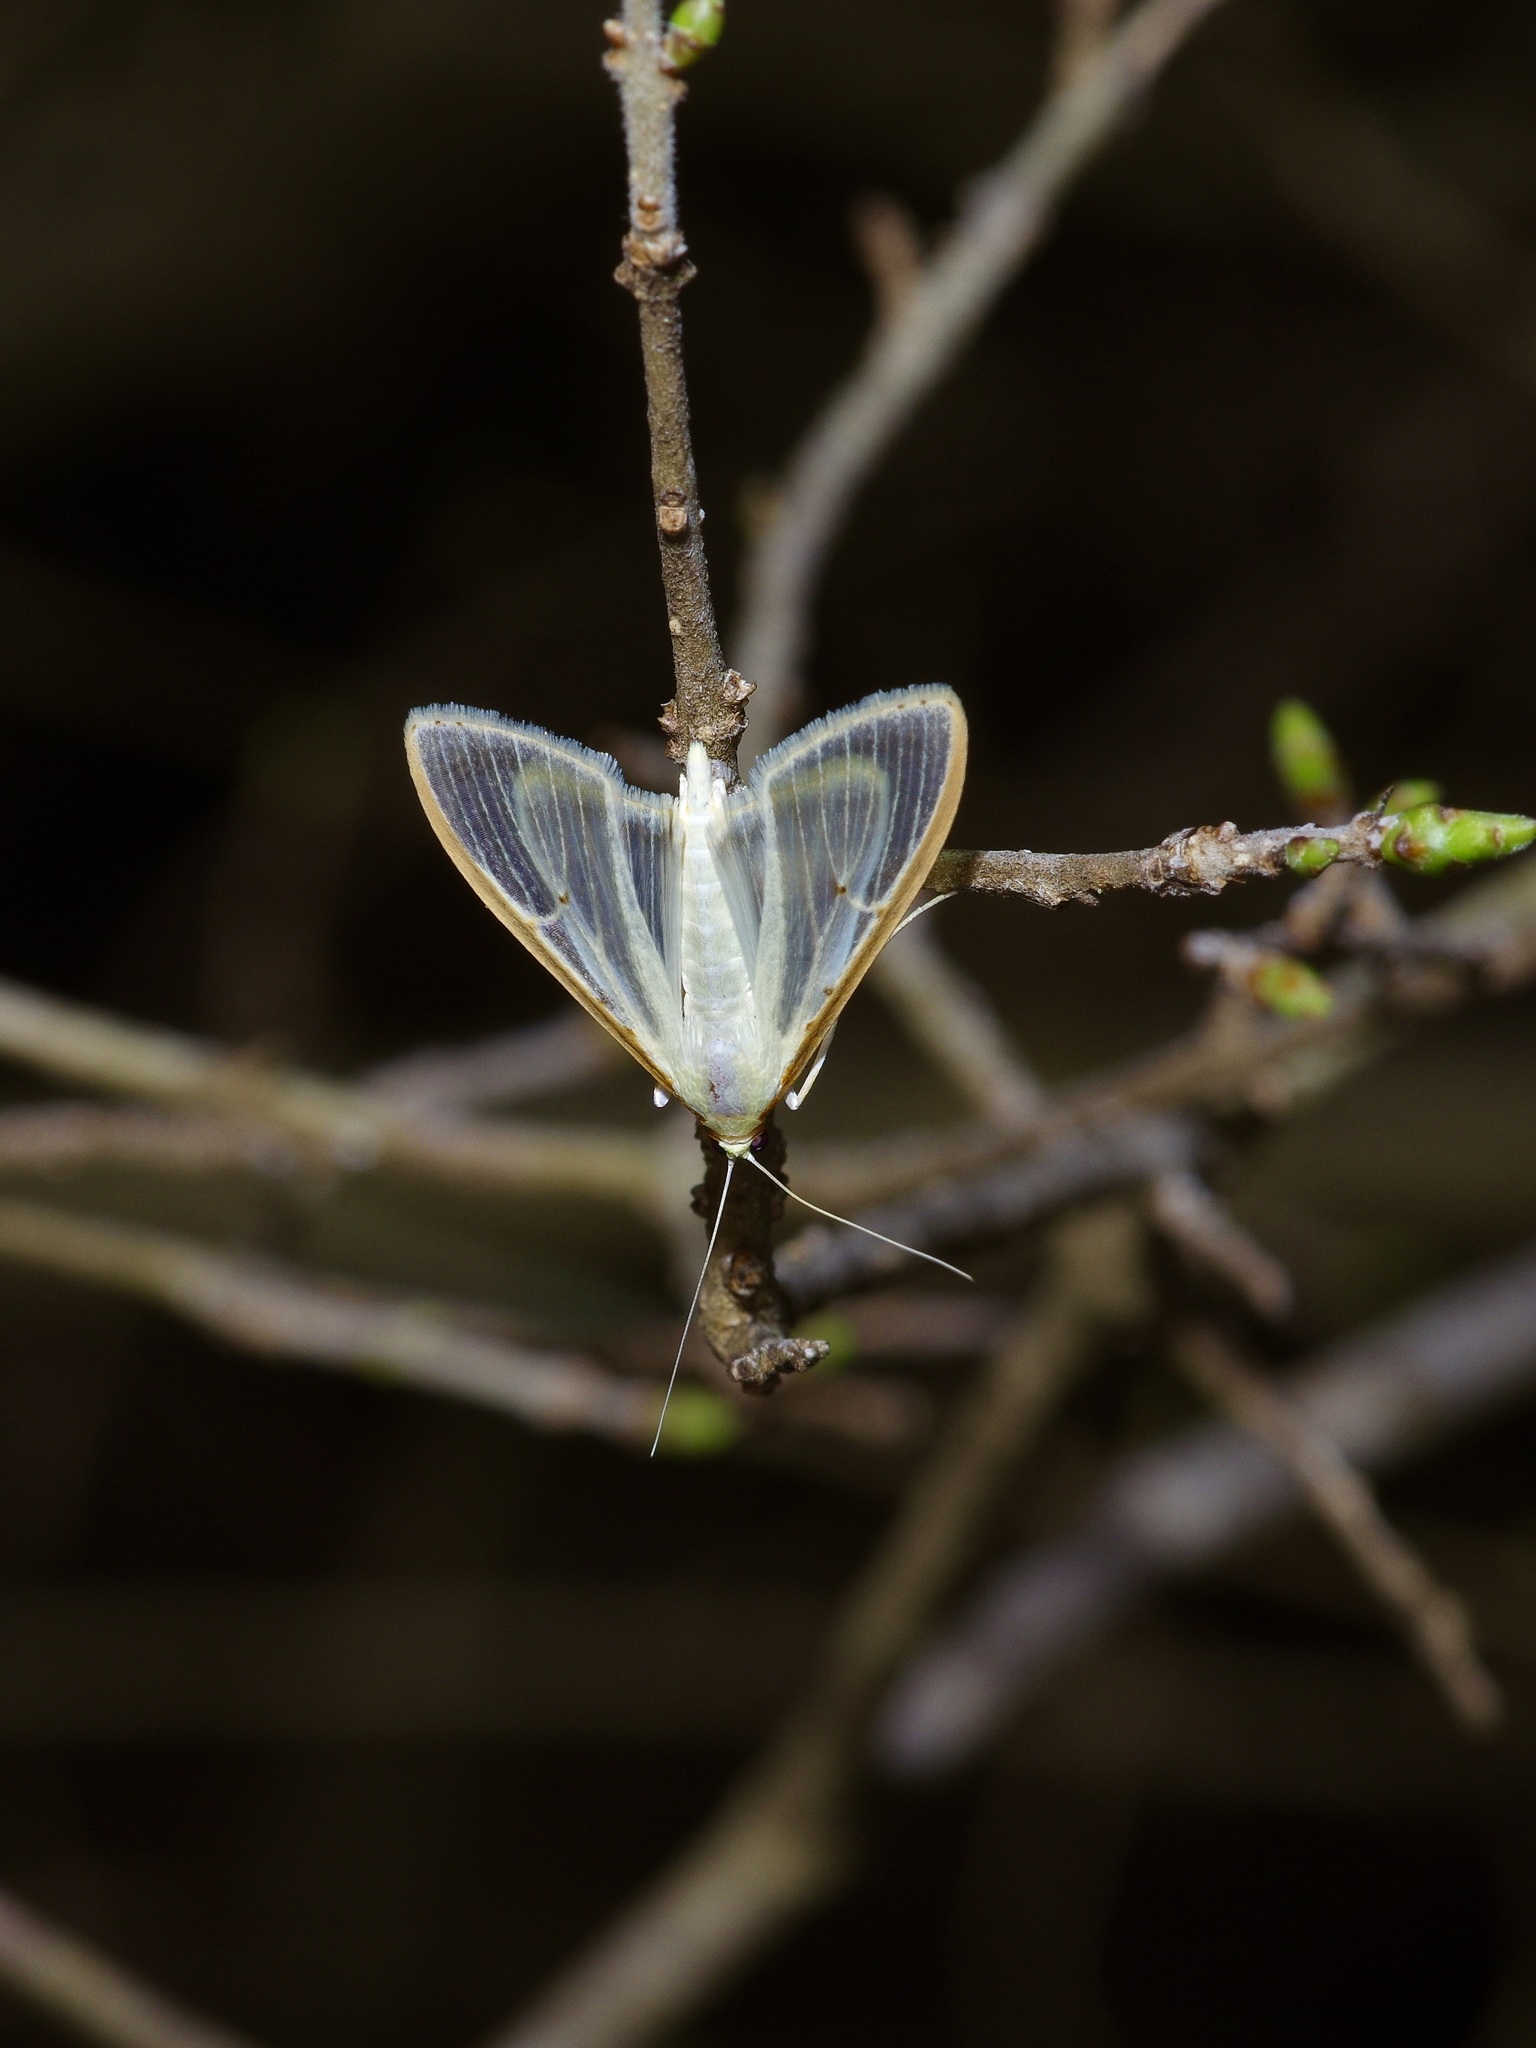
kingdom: Animalia
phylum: Arthropoda
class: Insecta
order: Lepidoptera
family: Crambidae
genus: Palpita
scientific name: Palpita quadristigmalis
